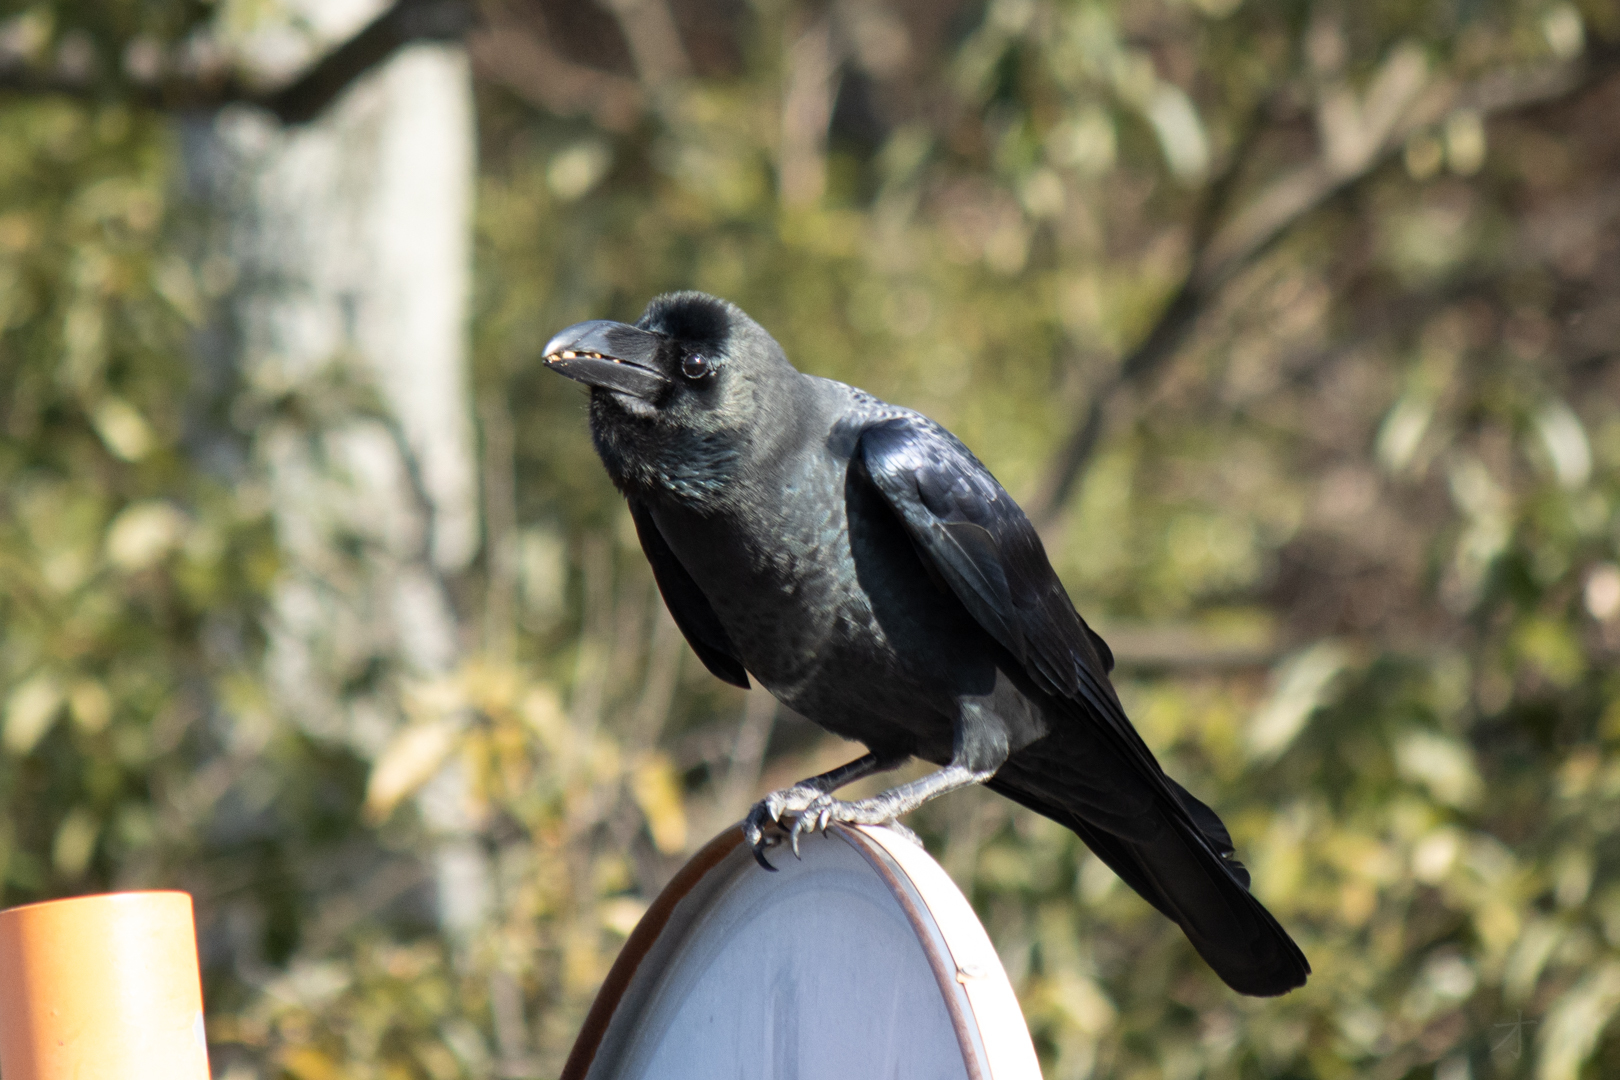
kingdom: Animalia
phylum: Chordata
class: Aves
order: Passeriformes
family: Corvidae
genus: Corvus
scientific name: Corvus macrorhynchos
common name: Large-billed crow
